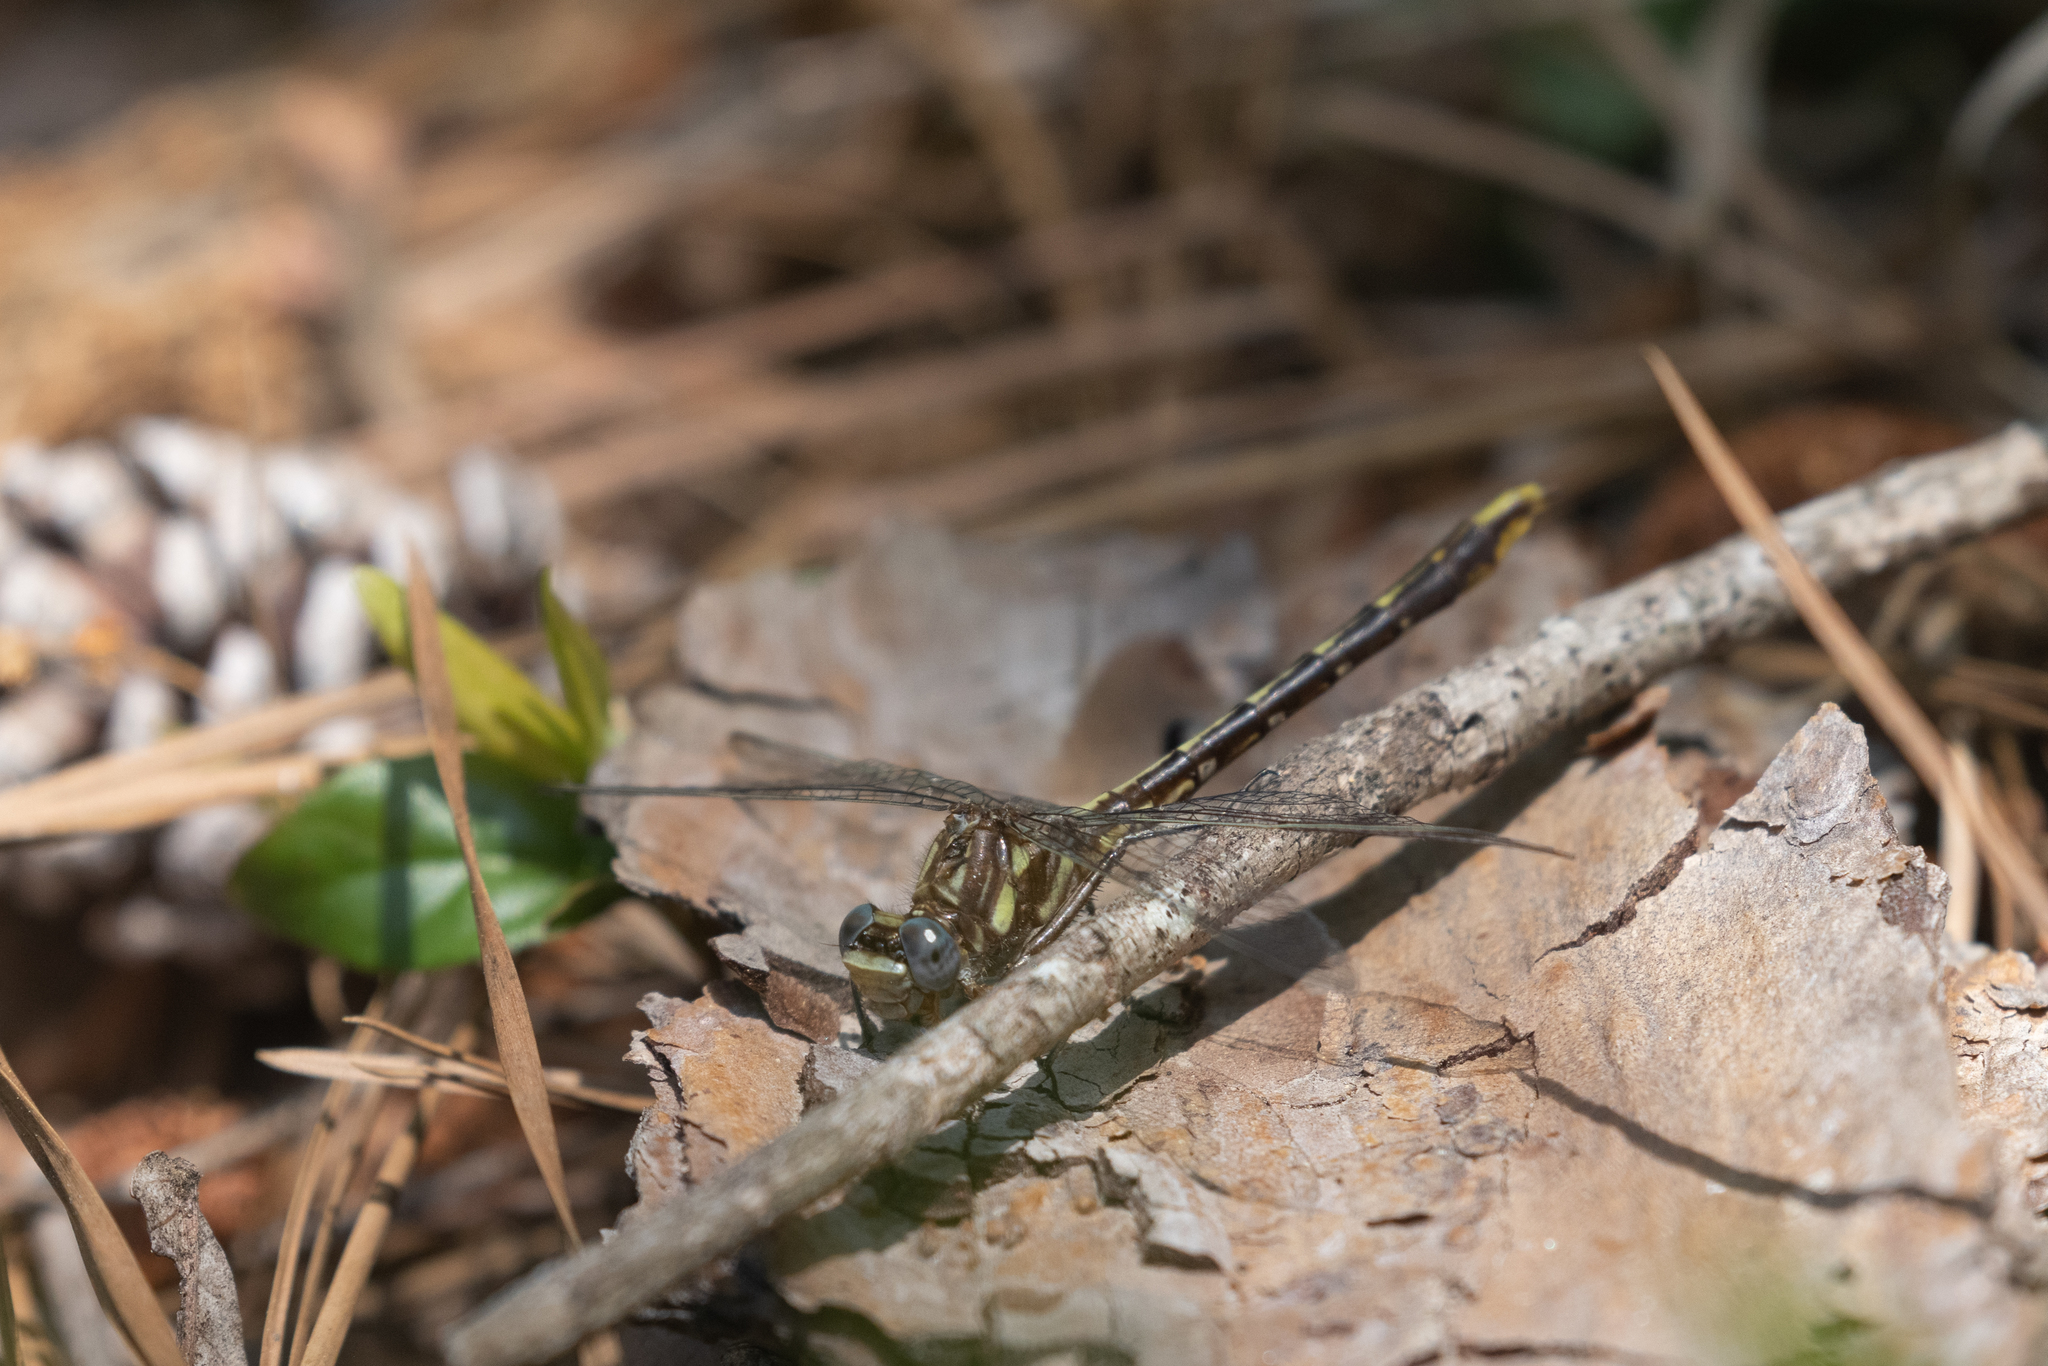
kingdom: Animalia
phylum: Arthropoda
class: Insecta
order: Odonata
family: Gomphidae
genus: Phanogomphus
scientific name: Phanogomphus exilis
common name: Lancet clubtail
